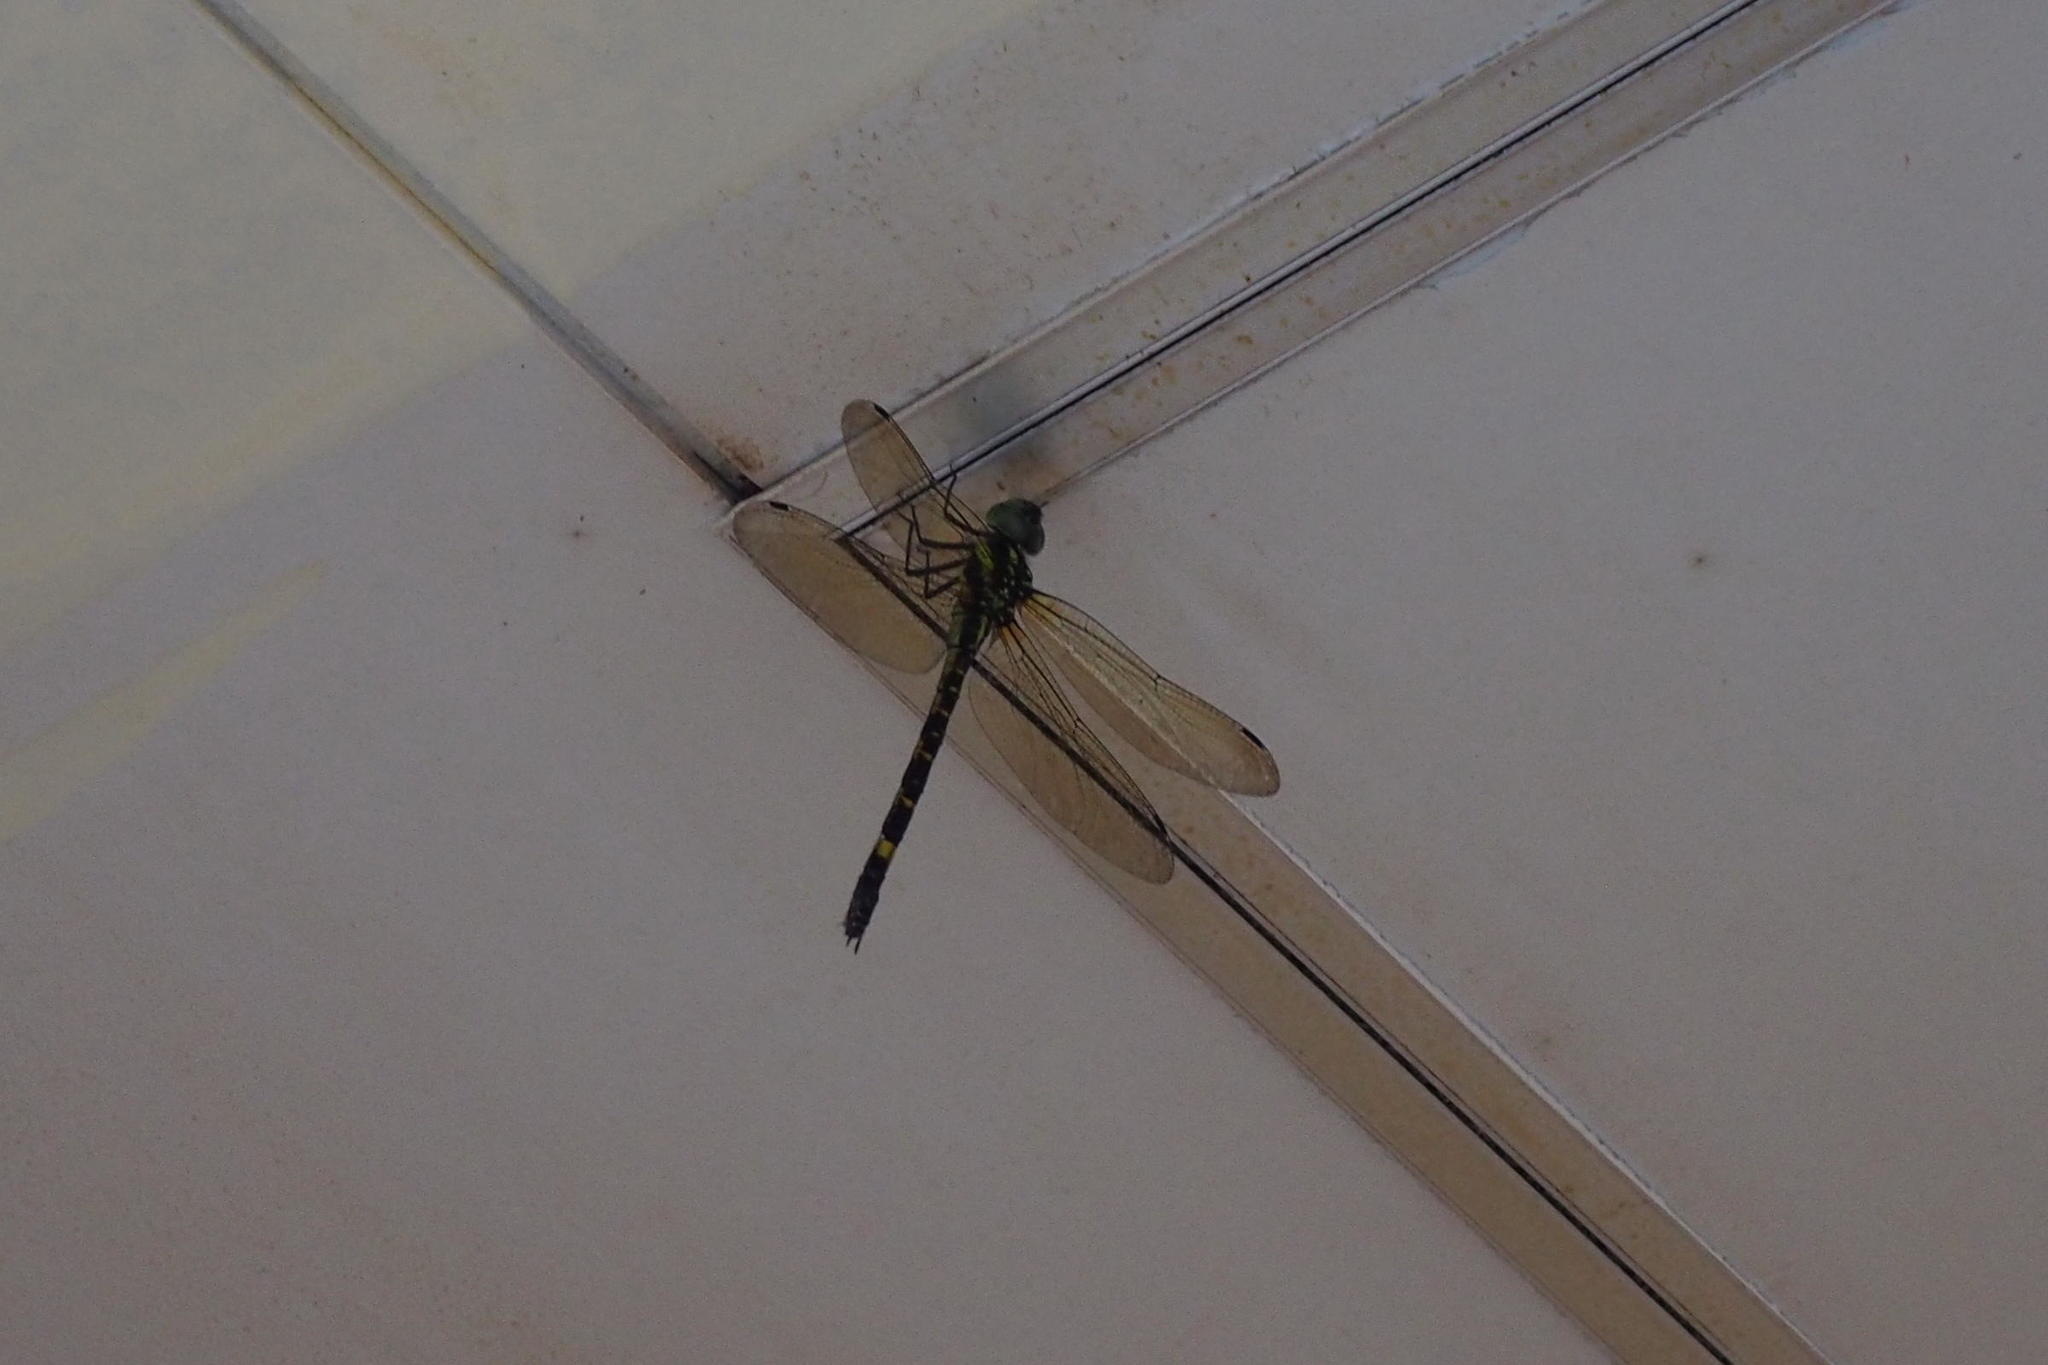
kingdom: Animalia
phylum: Arthropoda
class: Insecta
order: Odonata
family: Aeshnidae
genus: Indaeschna
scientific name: Indaeschna
